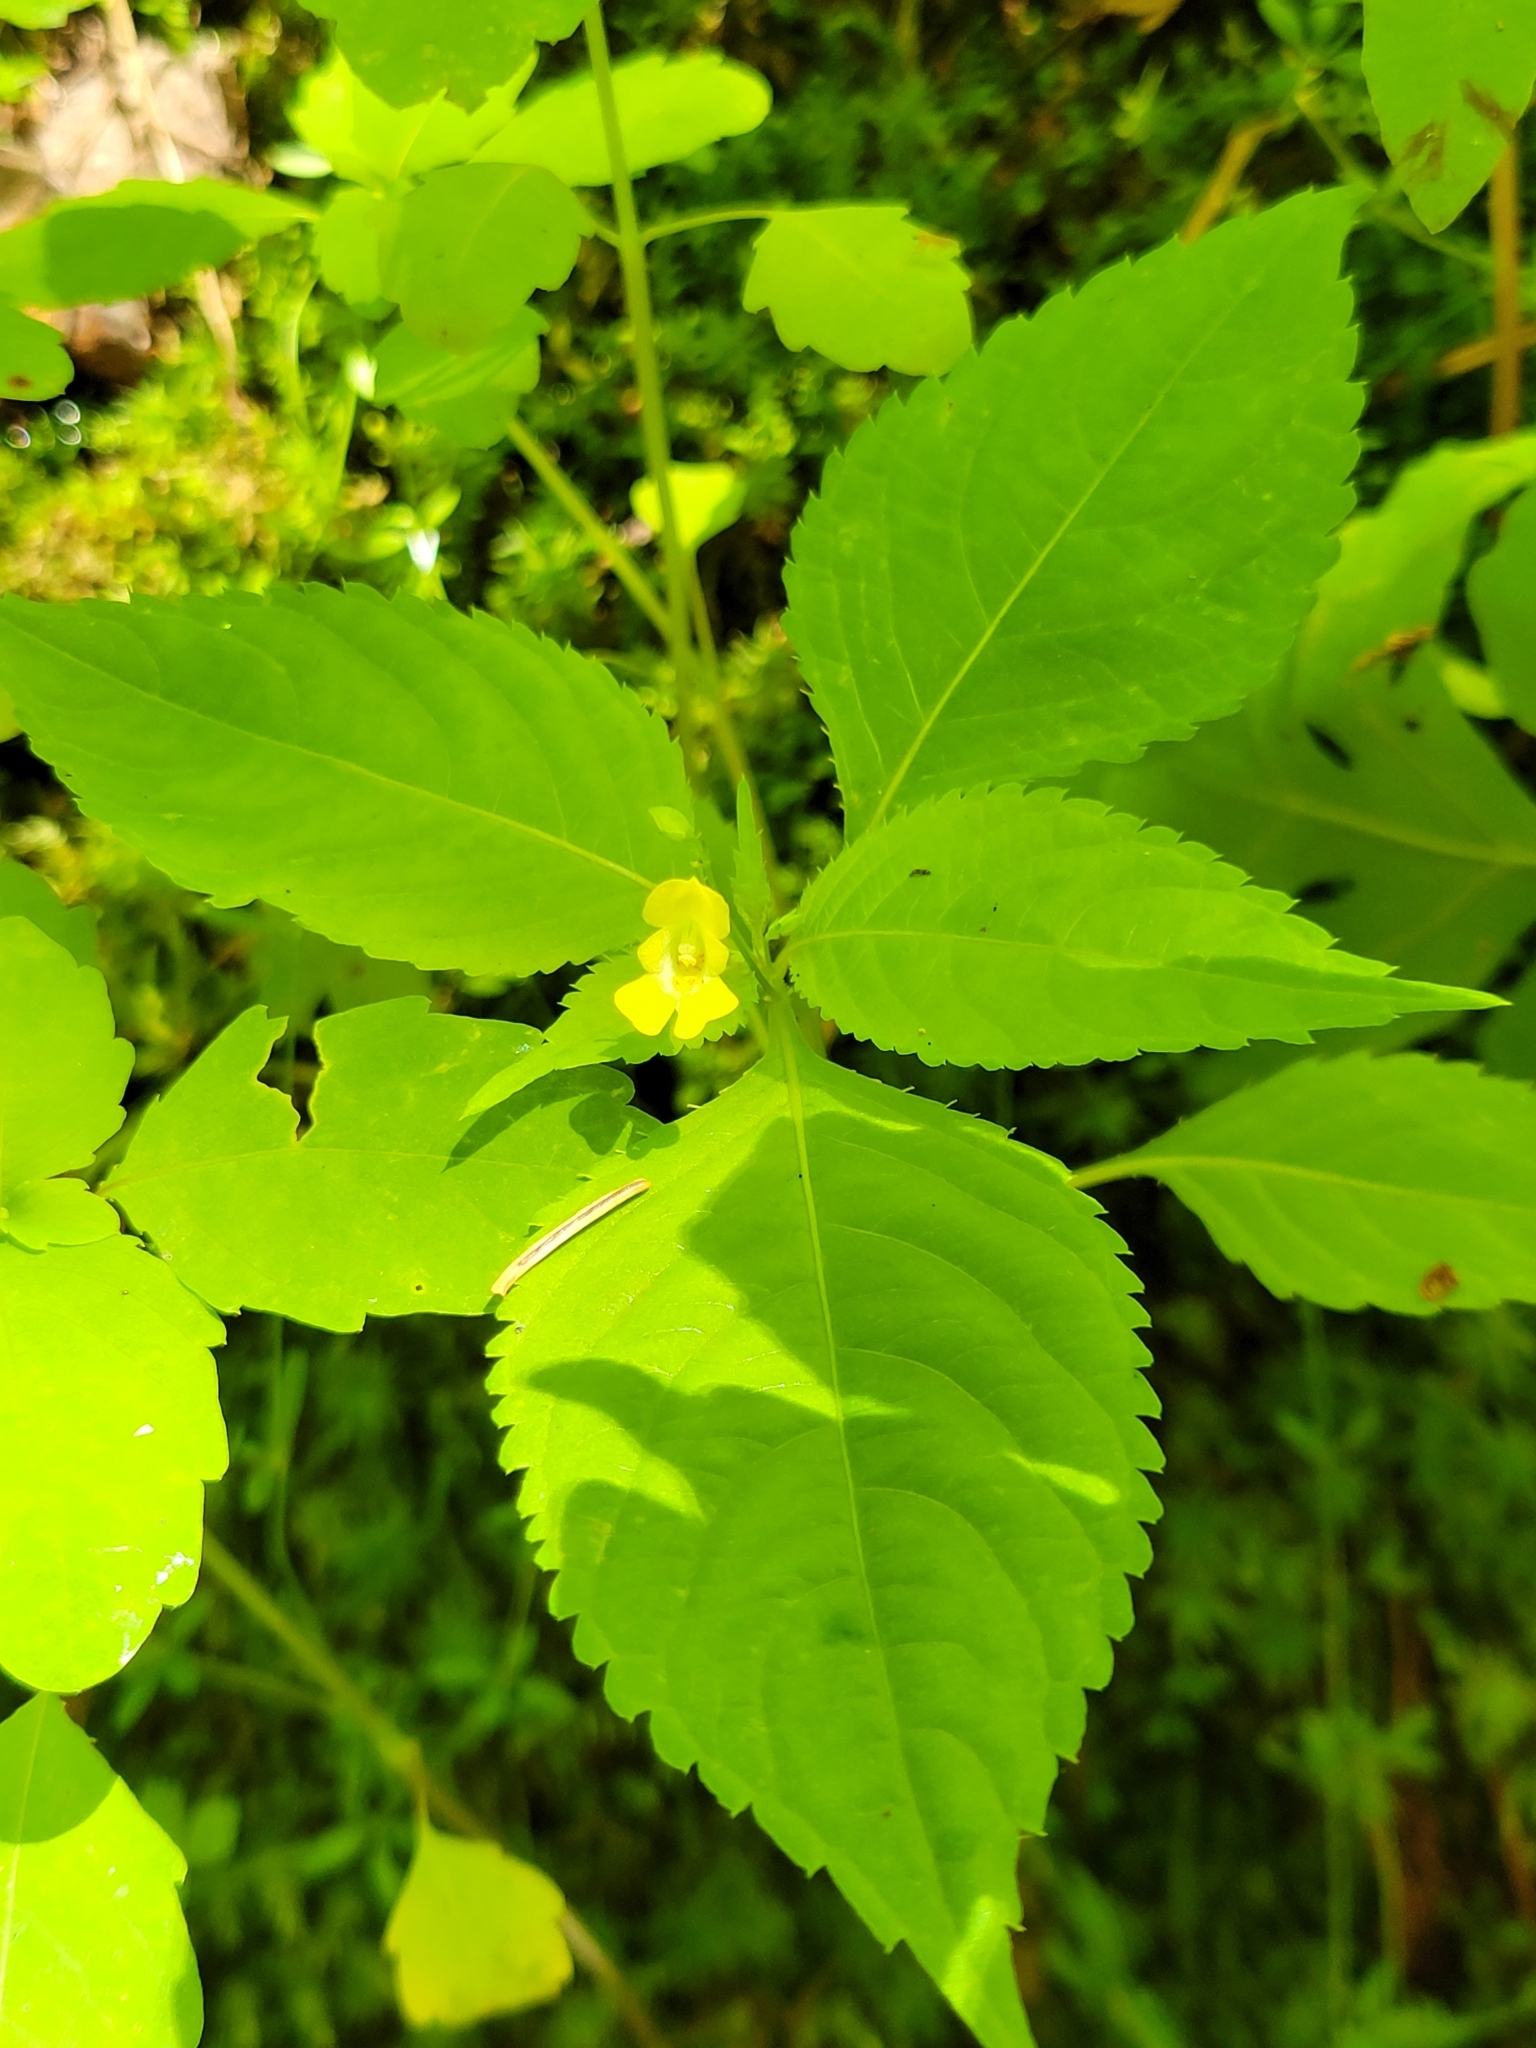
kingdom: Plantae
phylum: Tracheophyta
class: Magnoliopsida
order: Ericales
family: Balsaminaceae
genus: Impatiens
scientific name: Impatiens parviflora
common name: Small balsam
